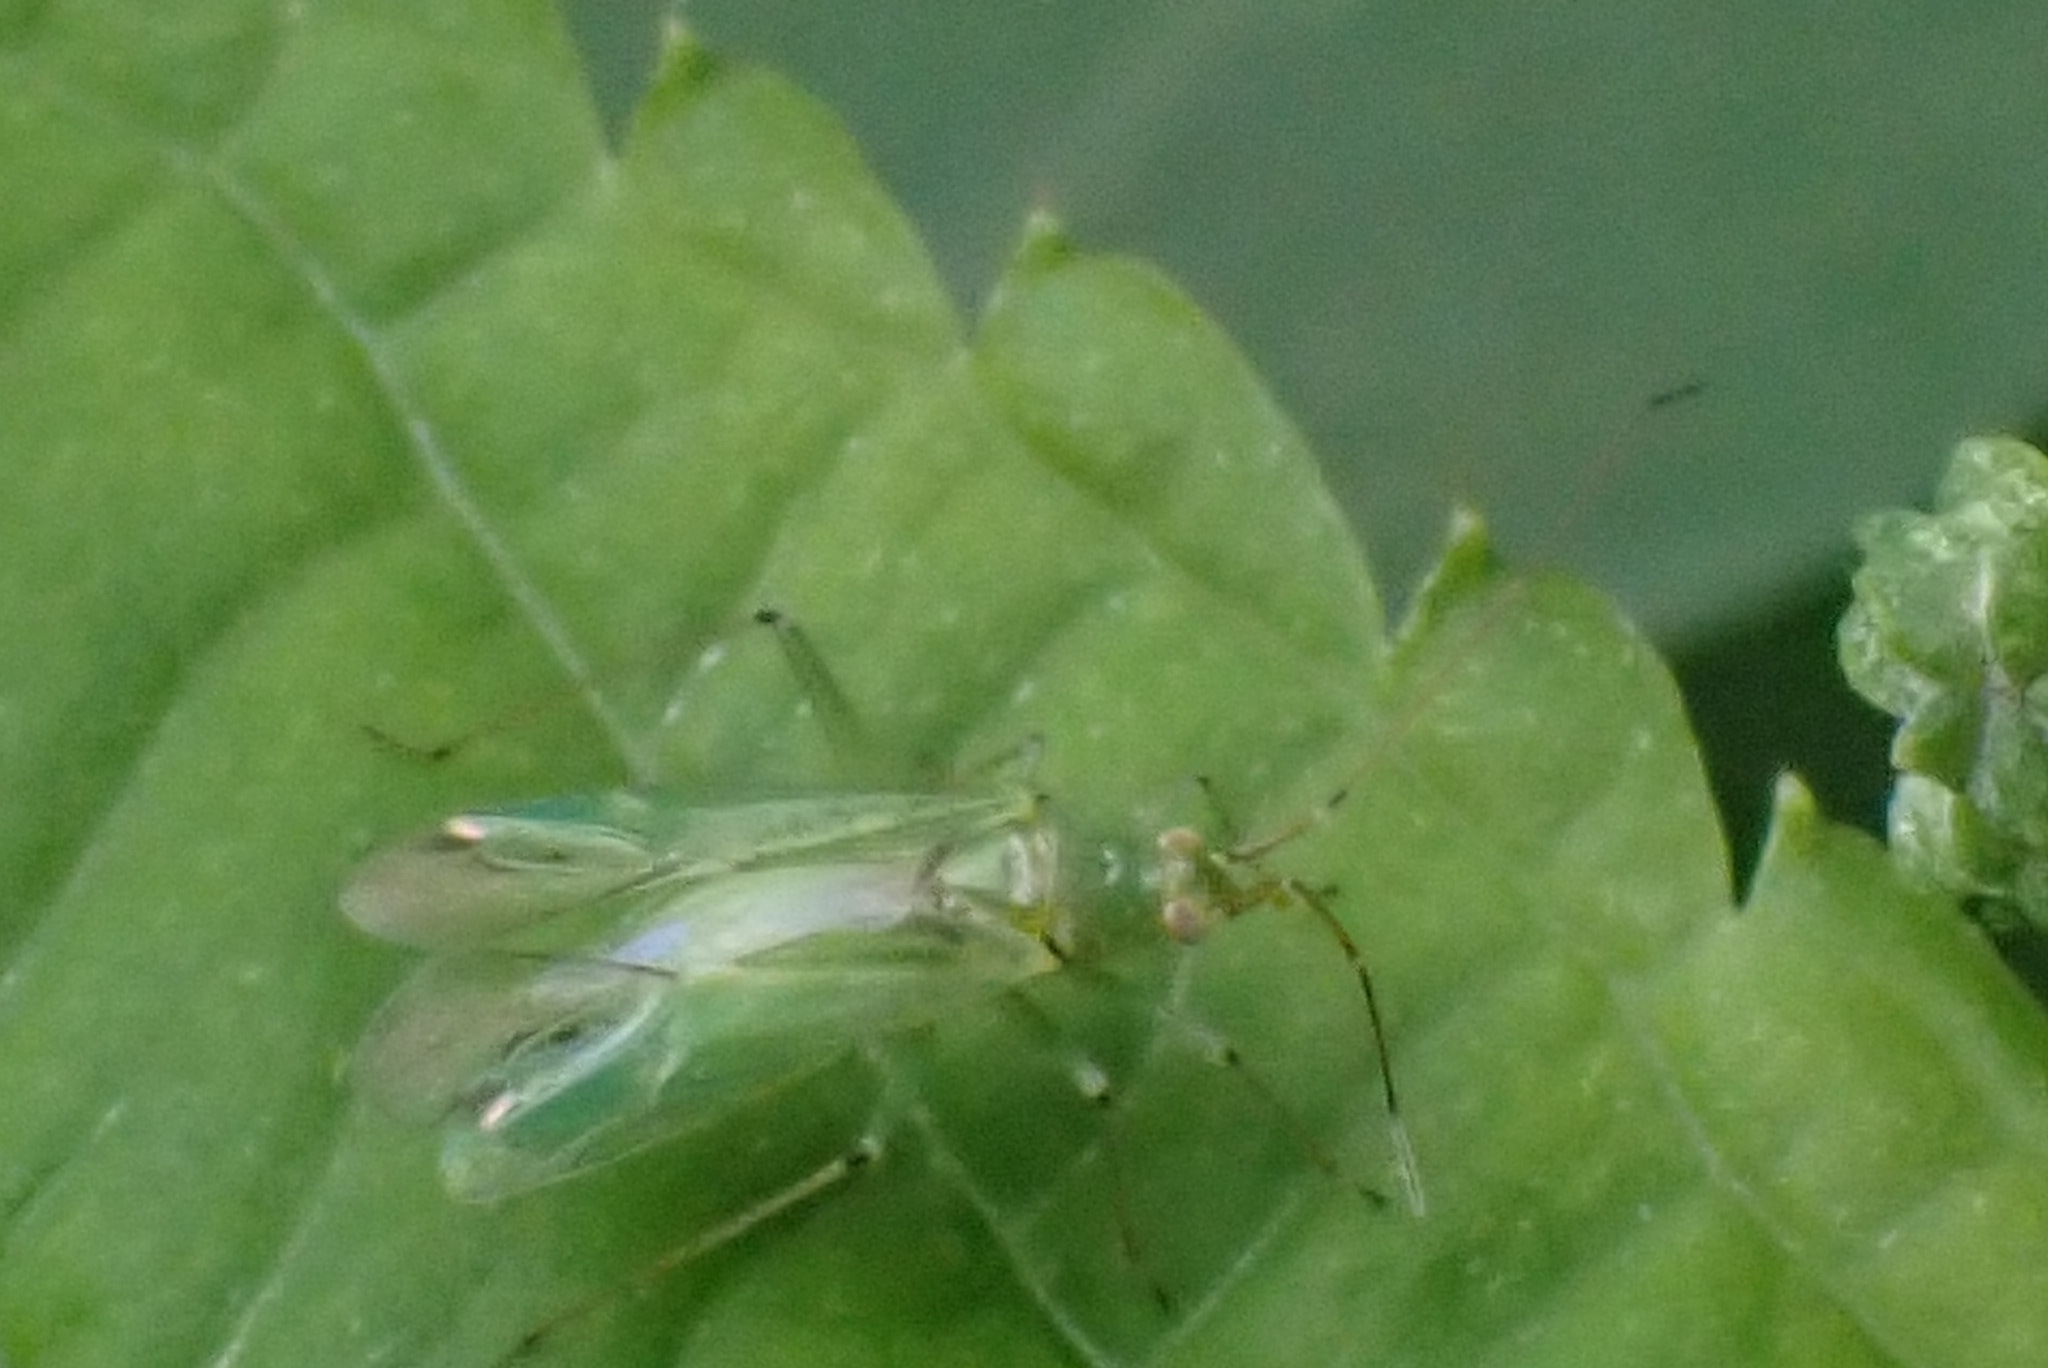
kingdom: Animalia
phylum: Arthropoda
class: Insecta
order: Hemiptera
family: Miridae
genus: Blepharidopterus
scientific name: Blepharidopterus angulatus
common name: Plant bug
